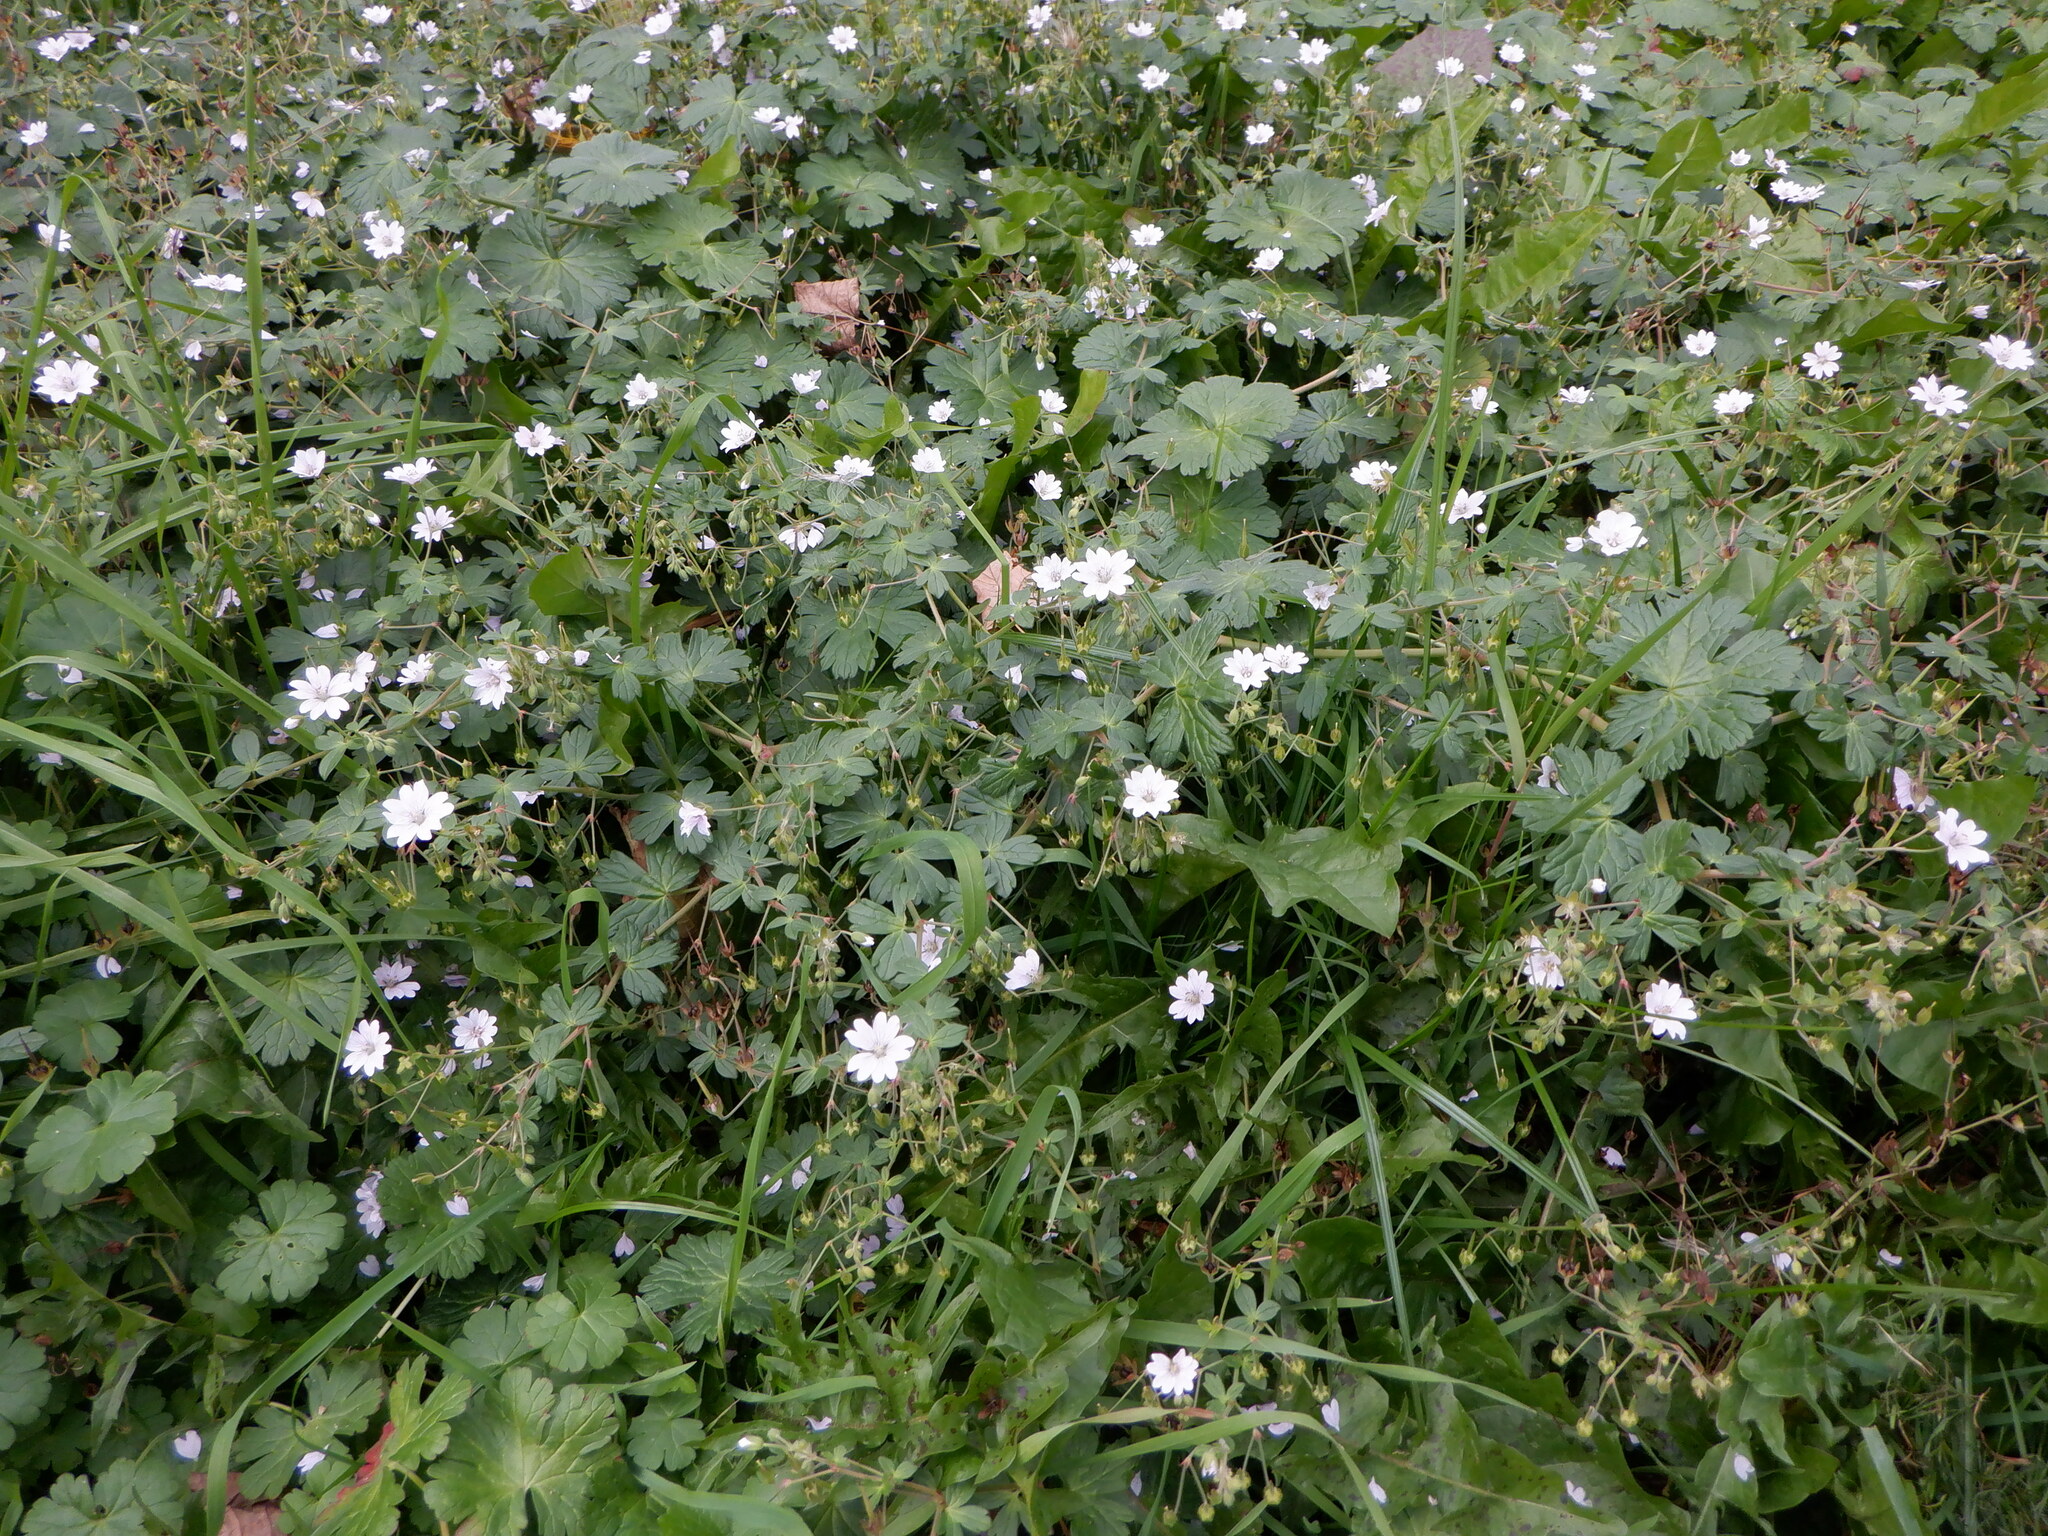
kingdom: Plantae
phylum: Tracheophyta
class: Magnoliopsida
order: Geraniales
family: Geraniaceae
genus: Geranium
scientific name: Geranium pyrenaicum
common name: Hedgerow crane's-bill
